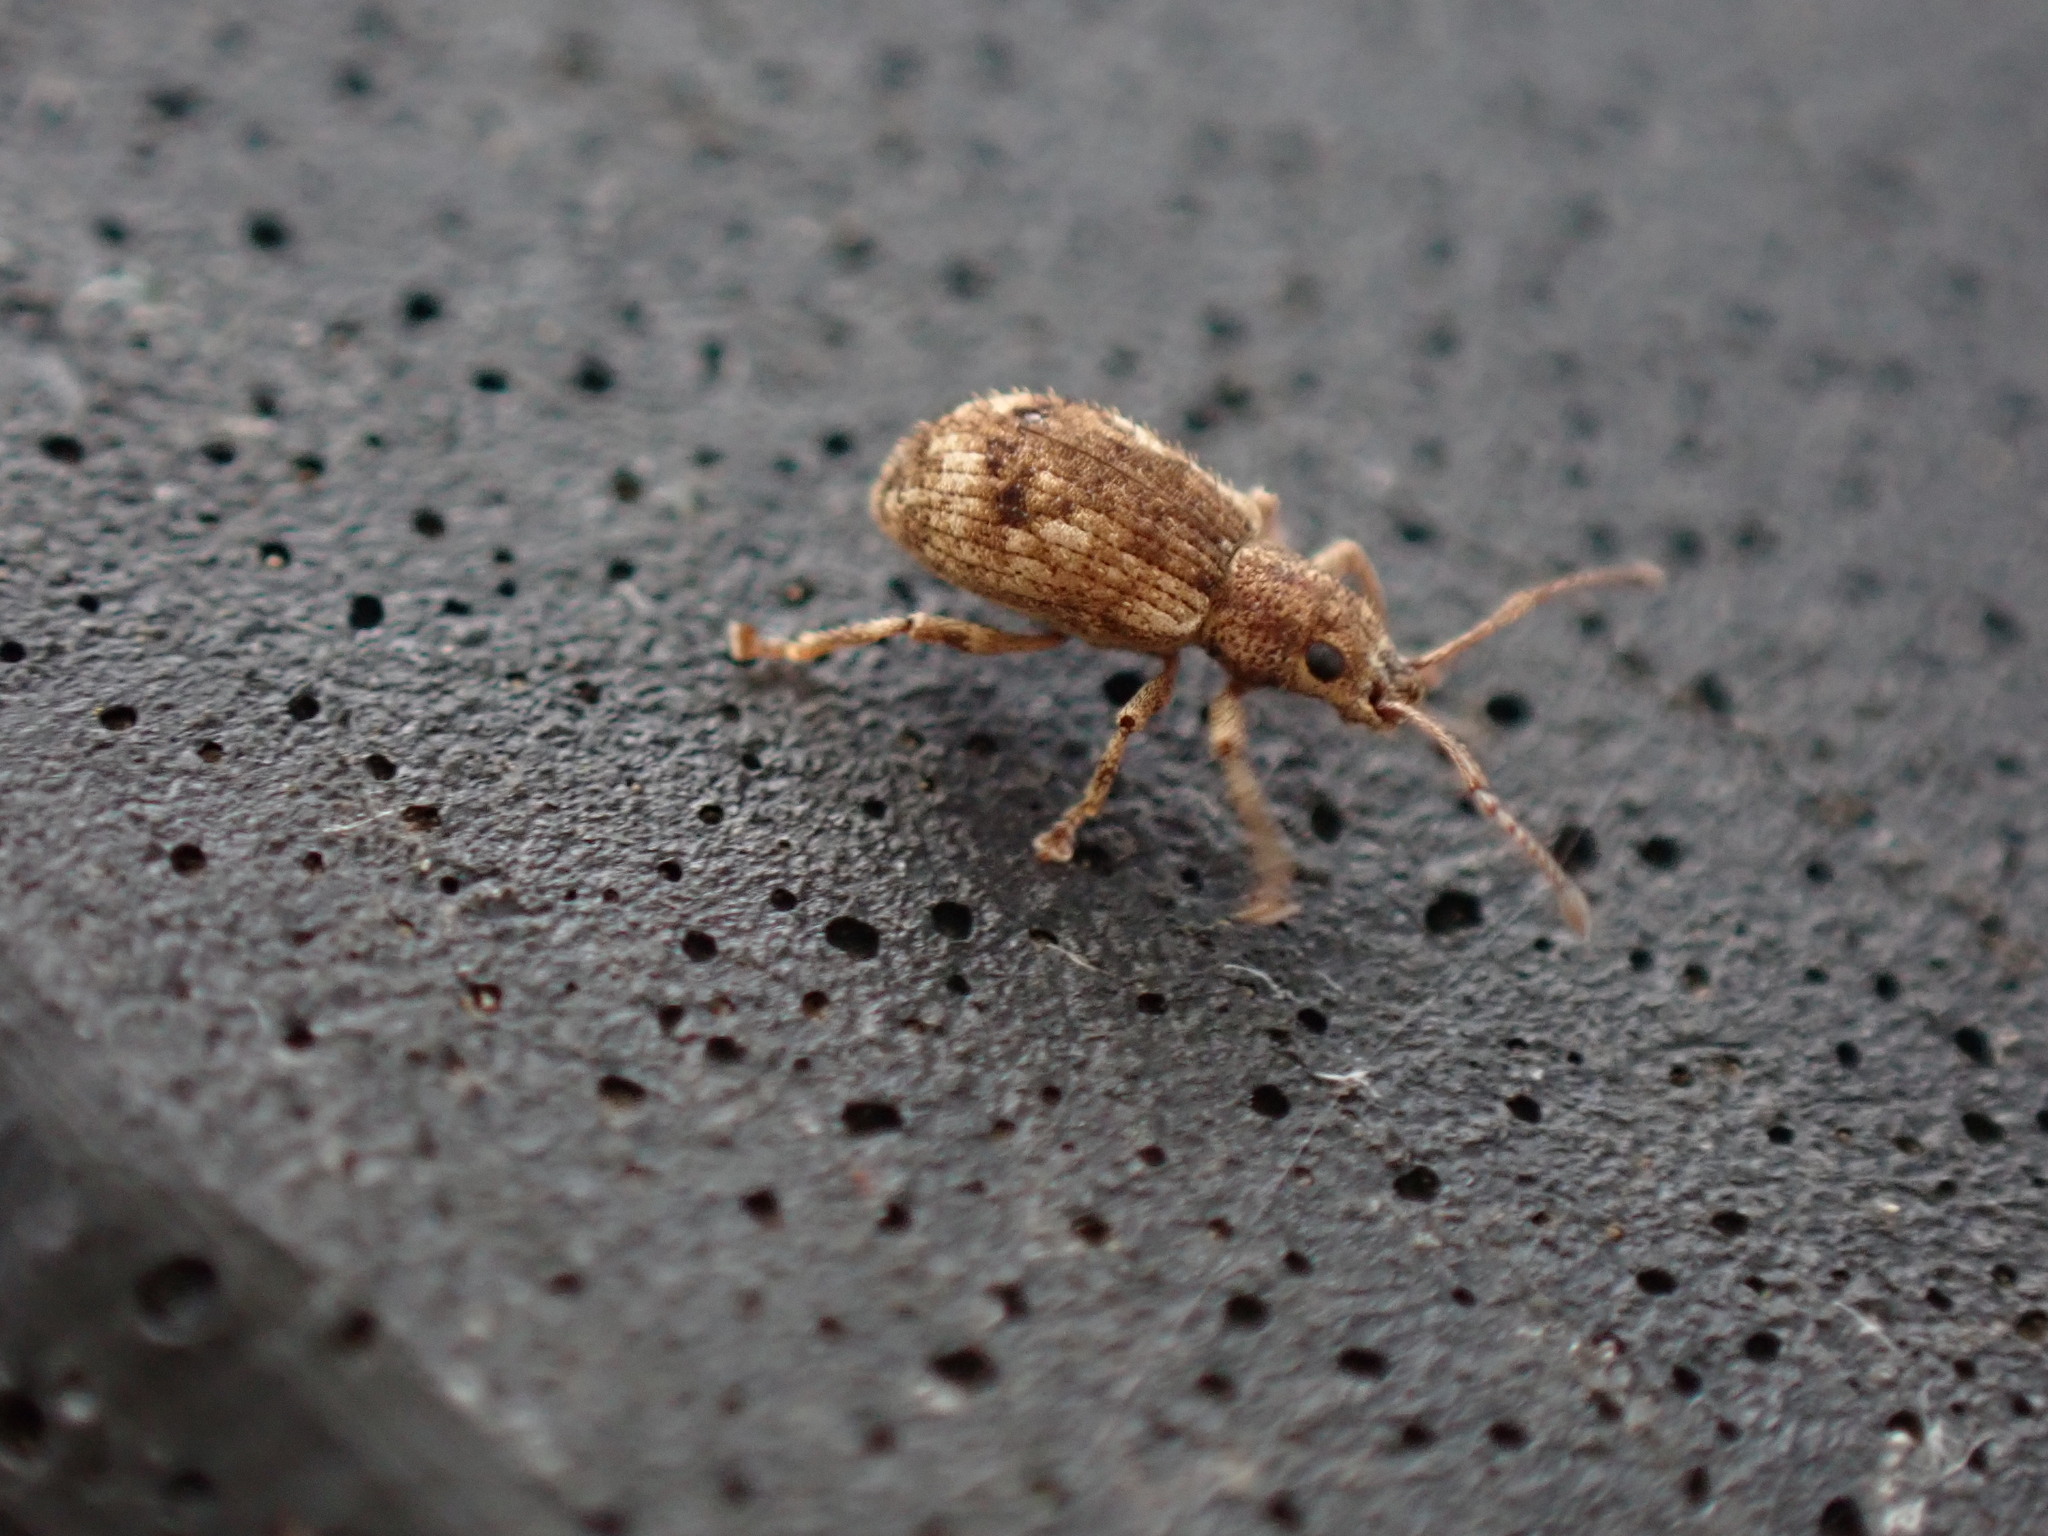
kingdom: Animalia
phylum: Arthropoda
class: Insecta
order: Coleoptera
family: Curculionidae
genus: Pseudoedophrys
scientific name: Pseudoedophrys hilleri
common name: Weevil
